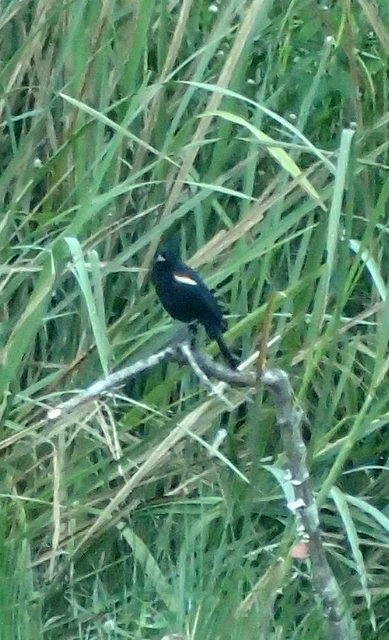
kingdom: Animalia
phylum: Chordata
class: Aves
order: Passeriformes
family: Icteridae
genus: Agelaius
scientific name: Agelaius phoeniceus
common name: Red-winged blackbird
